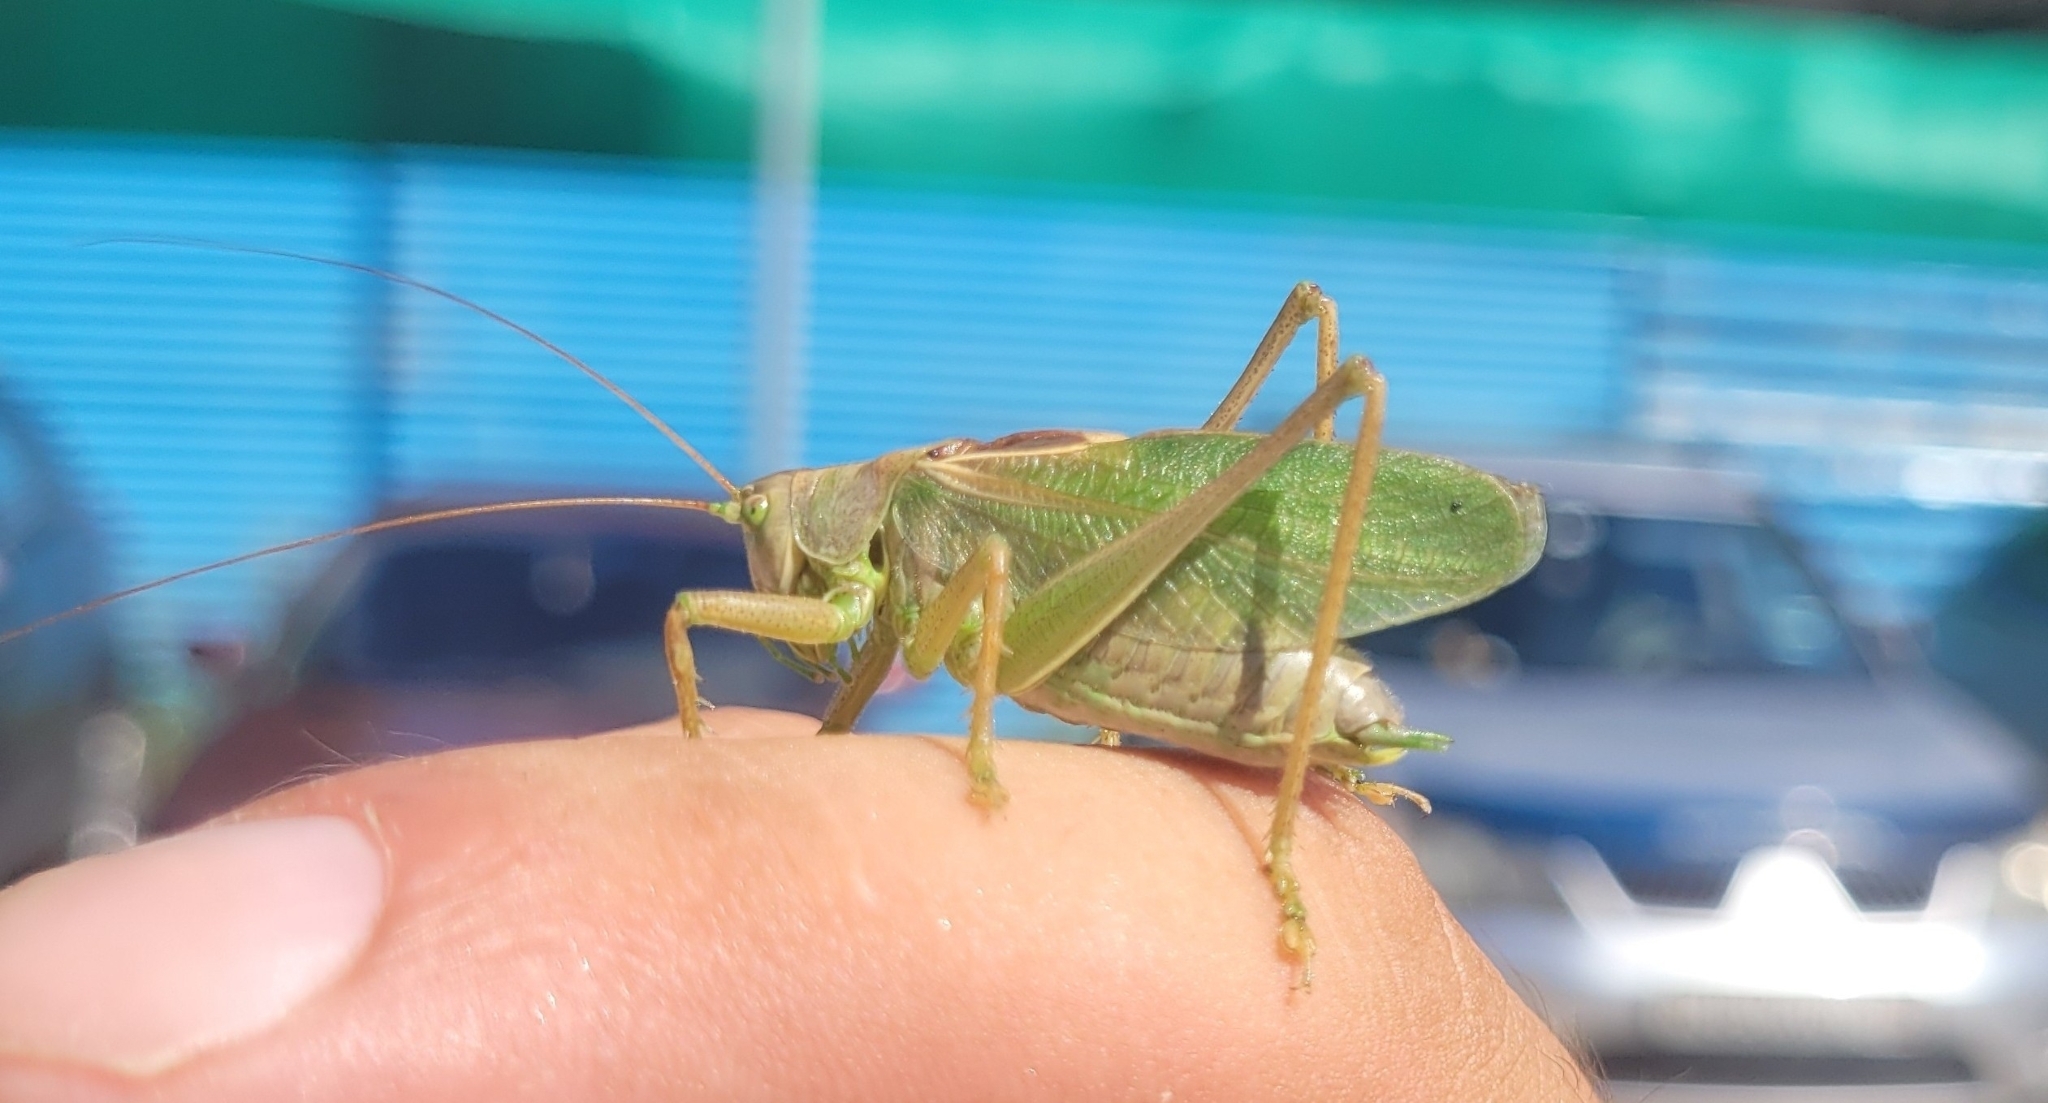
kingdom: Animalia
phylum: Arthropoda
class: Insecta
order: Orthoptera
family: Tettigoniidae
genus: Tettigonia
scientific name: Tettigonia cantans
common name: Upland green bush-cricket
